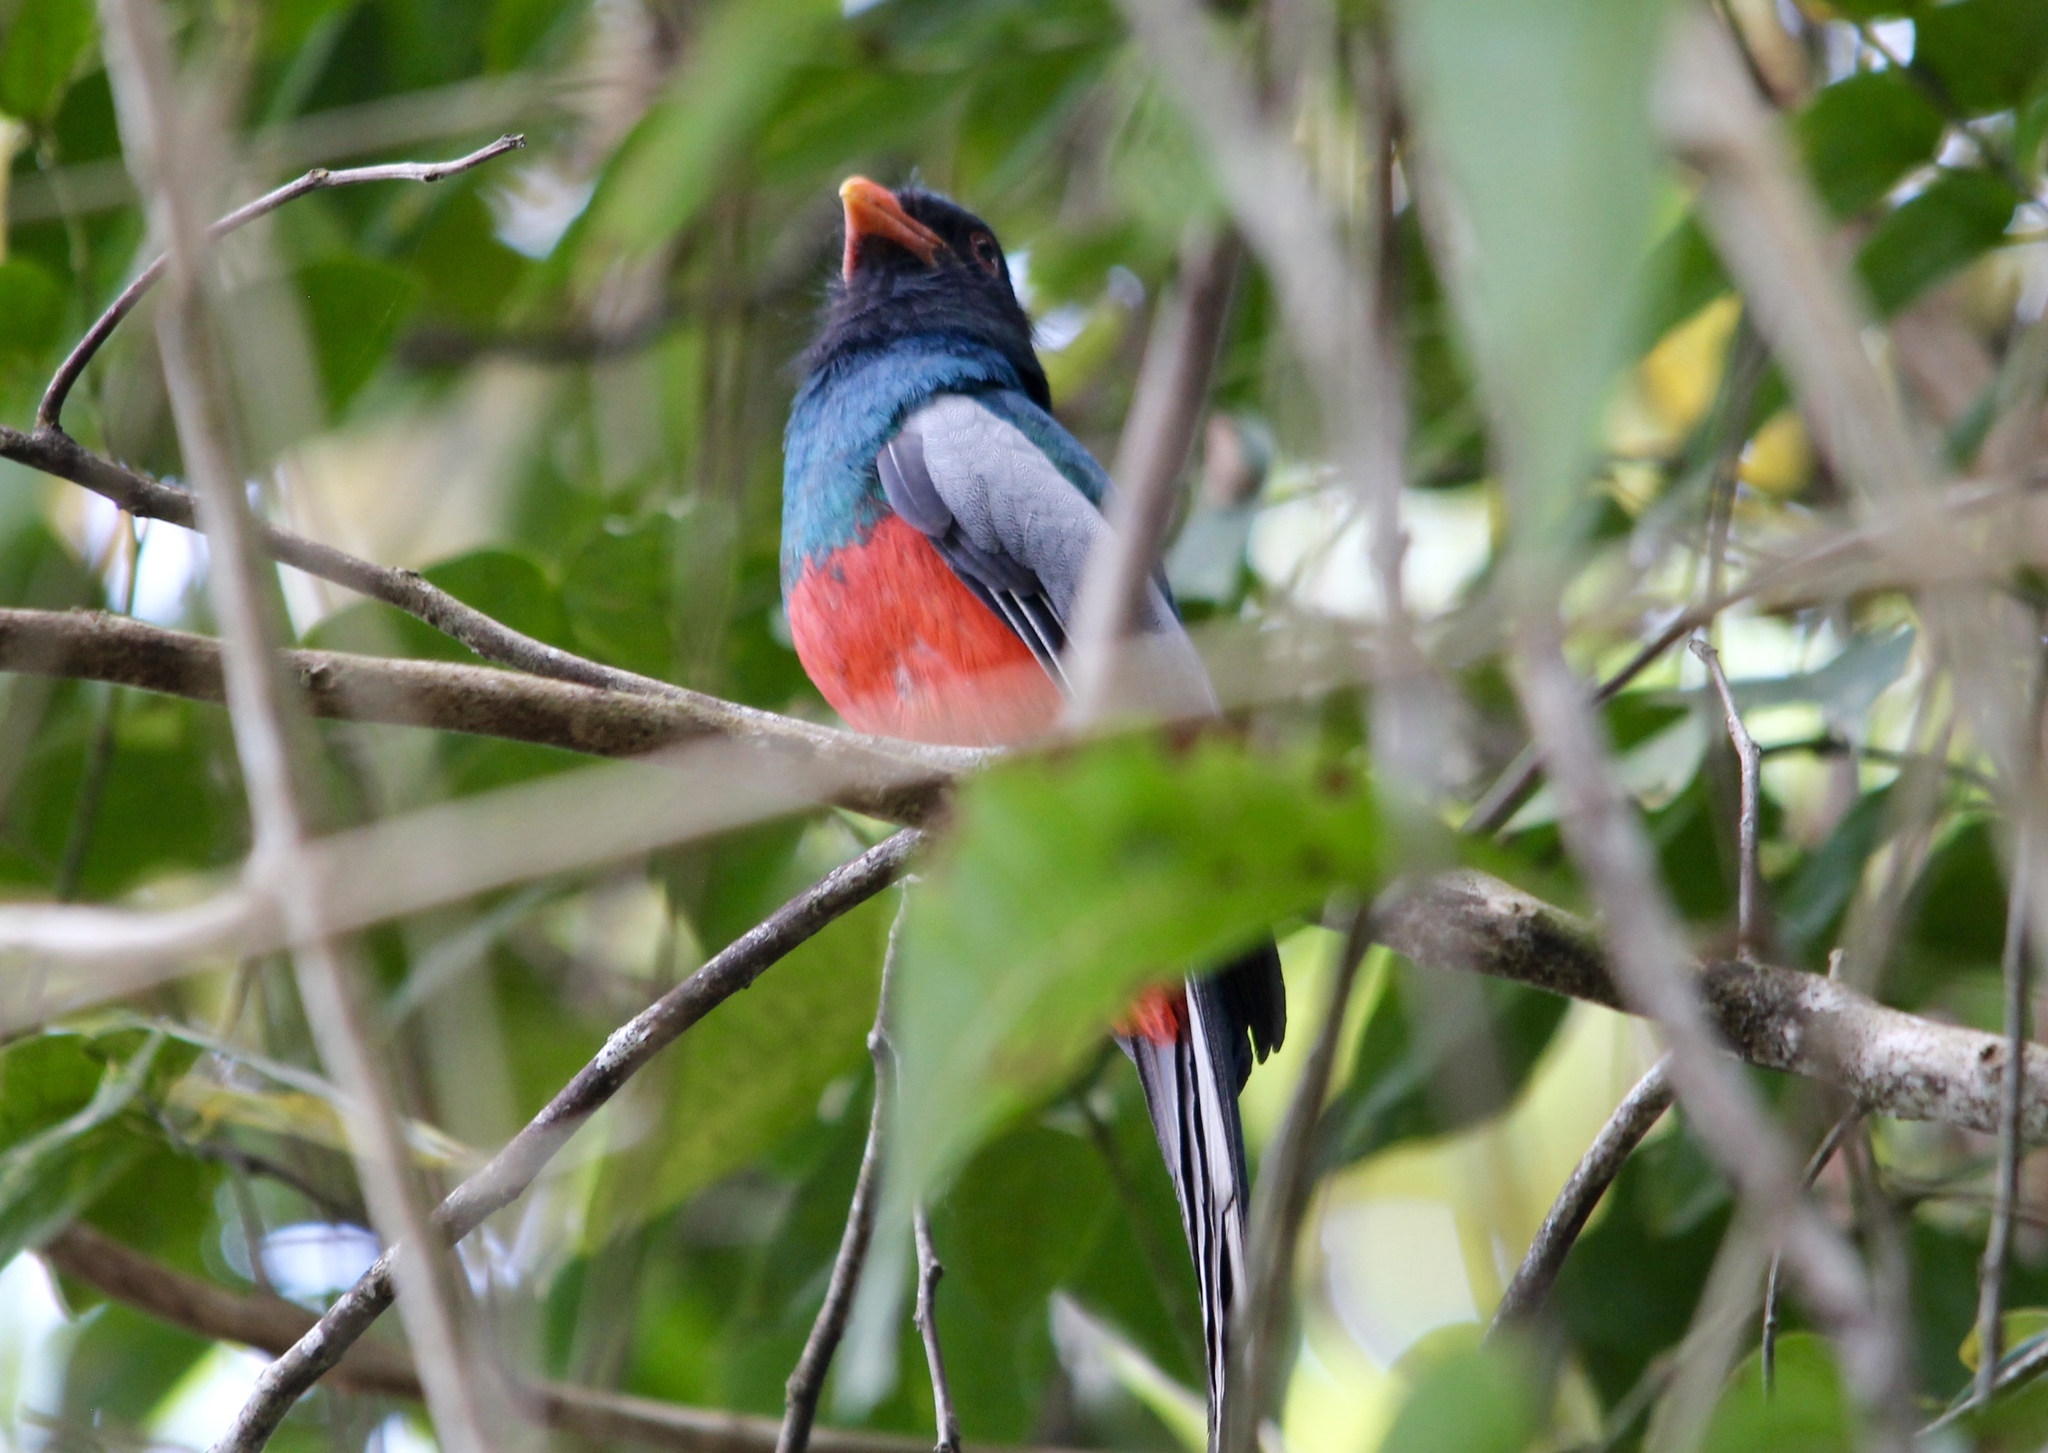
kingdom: Animalia
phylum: Chordata
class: Aves
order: Trogoniformes
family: Trogonidae
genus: Trogon
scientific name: Trogon massena
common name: Slaty-tailed trogon
